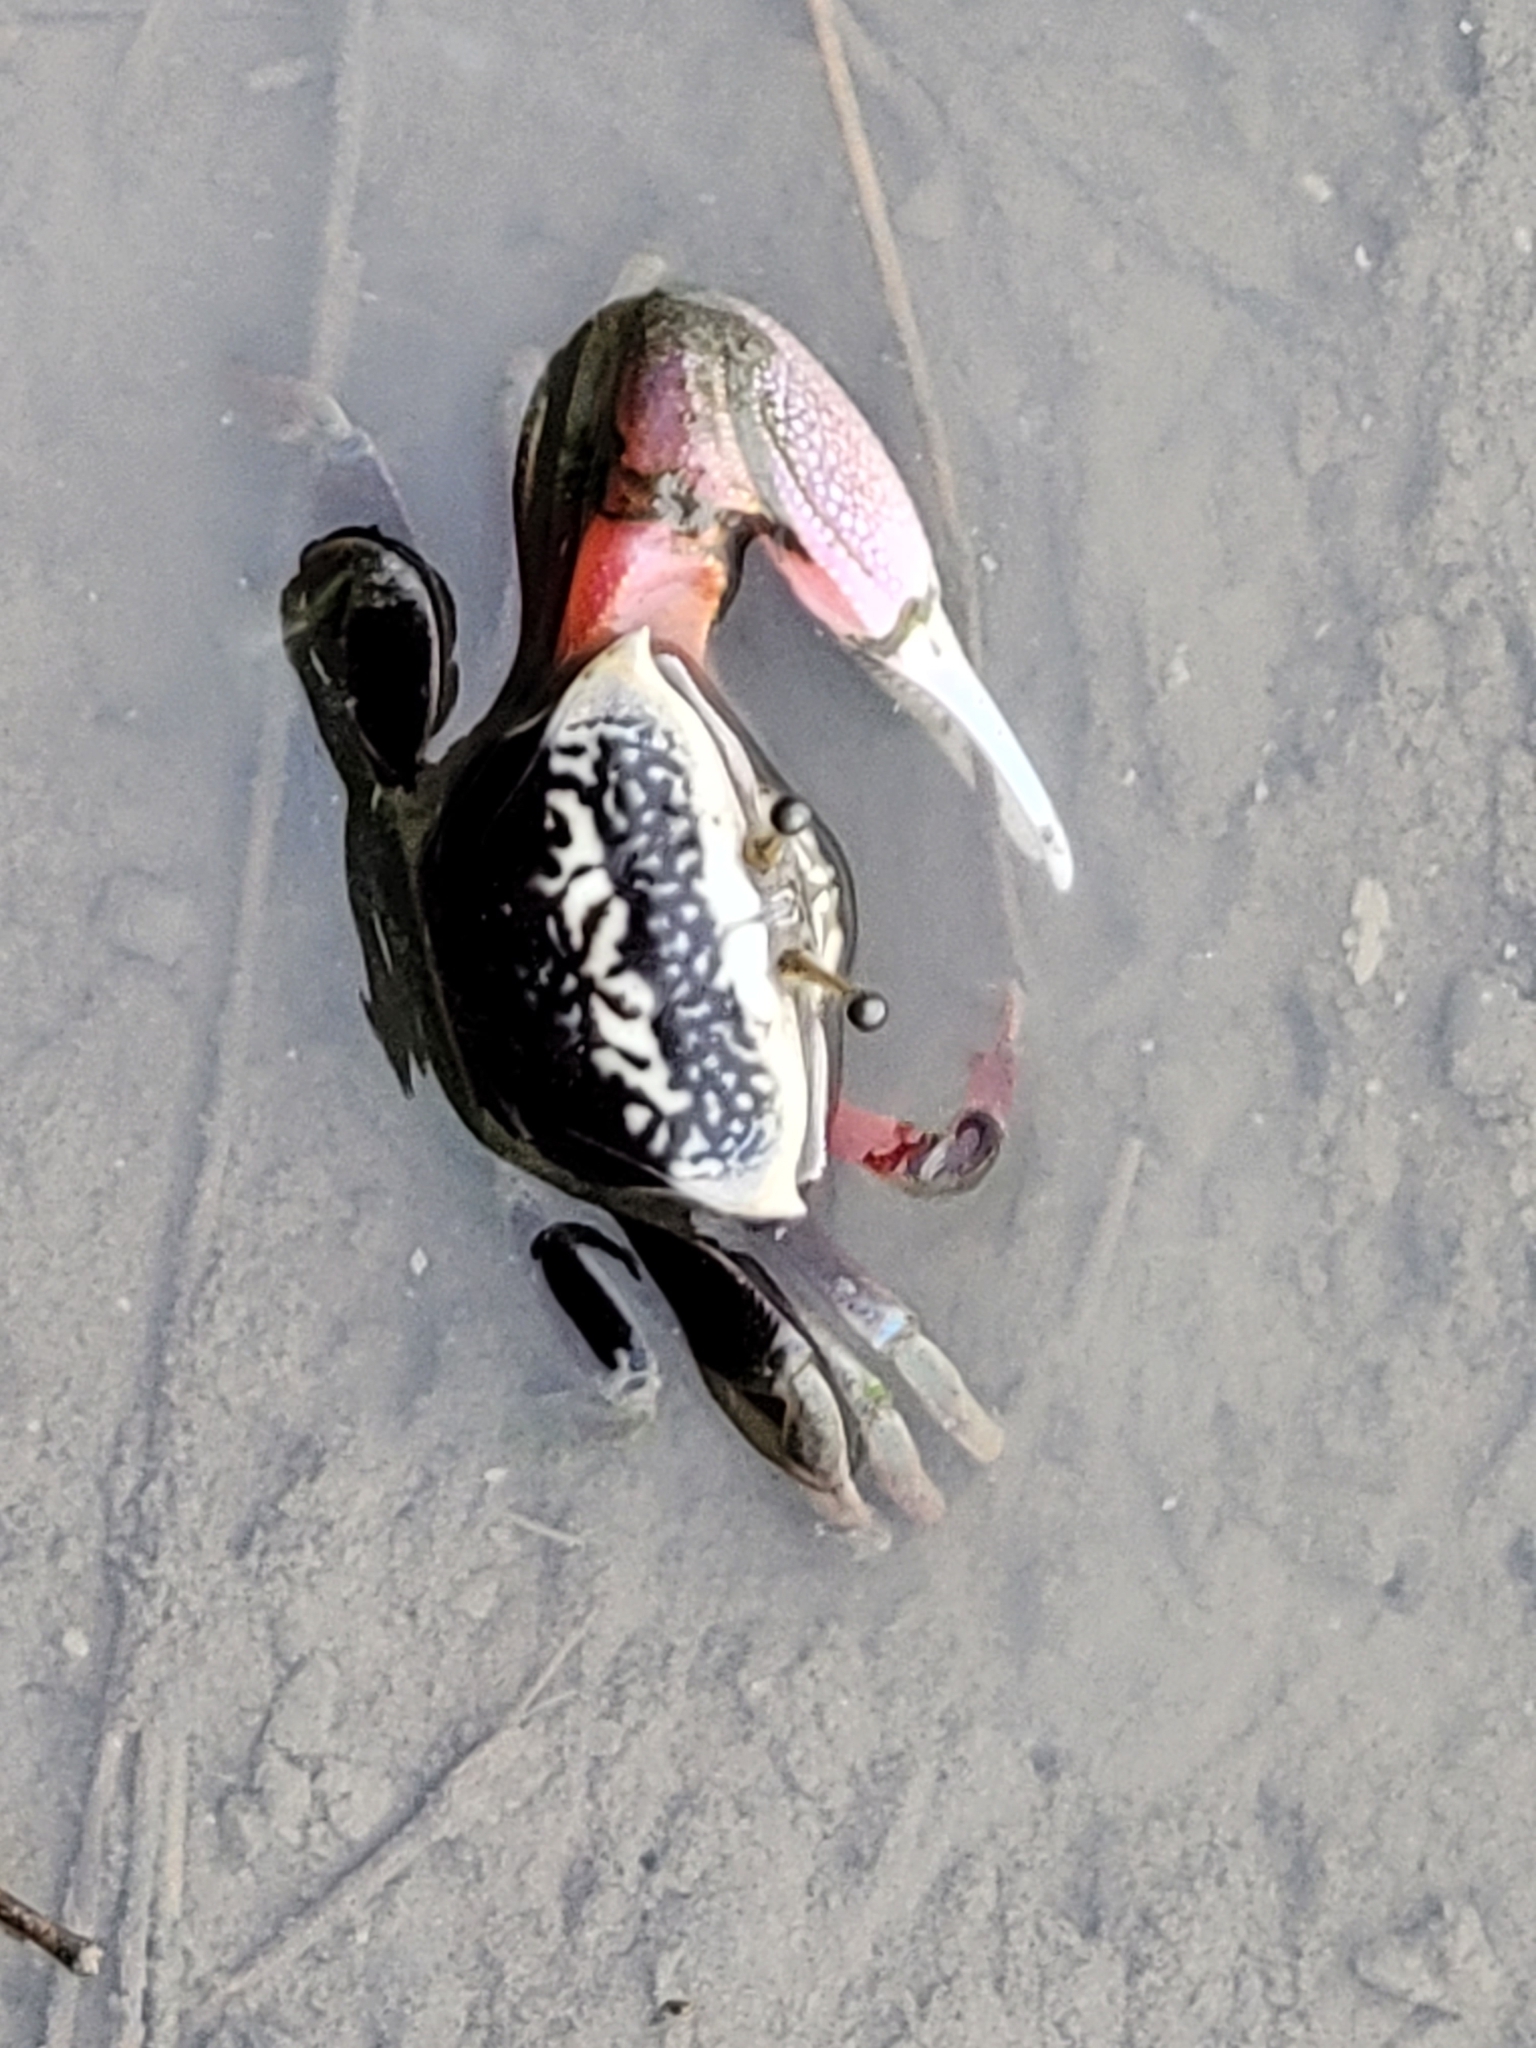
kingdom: Animalia
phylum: Arthropoda
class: Malacostraca
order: Decapoda
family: Ocypodidae
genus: Tubuca
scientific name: Tubuca arcuata
